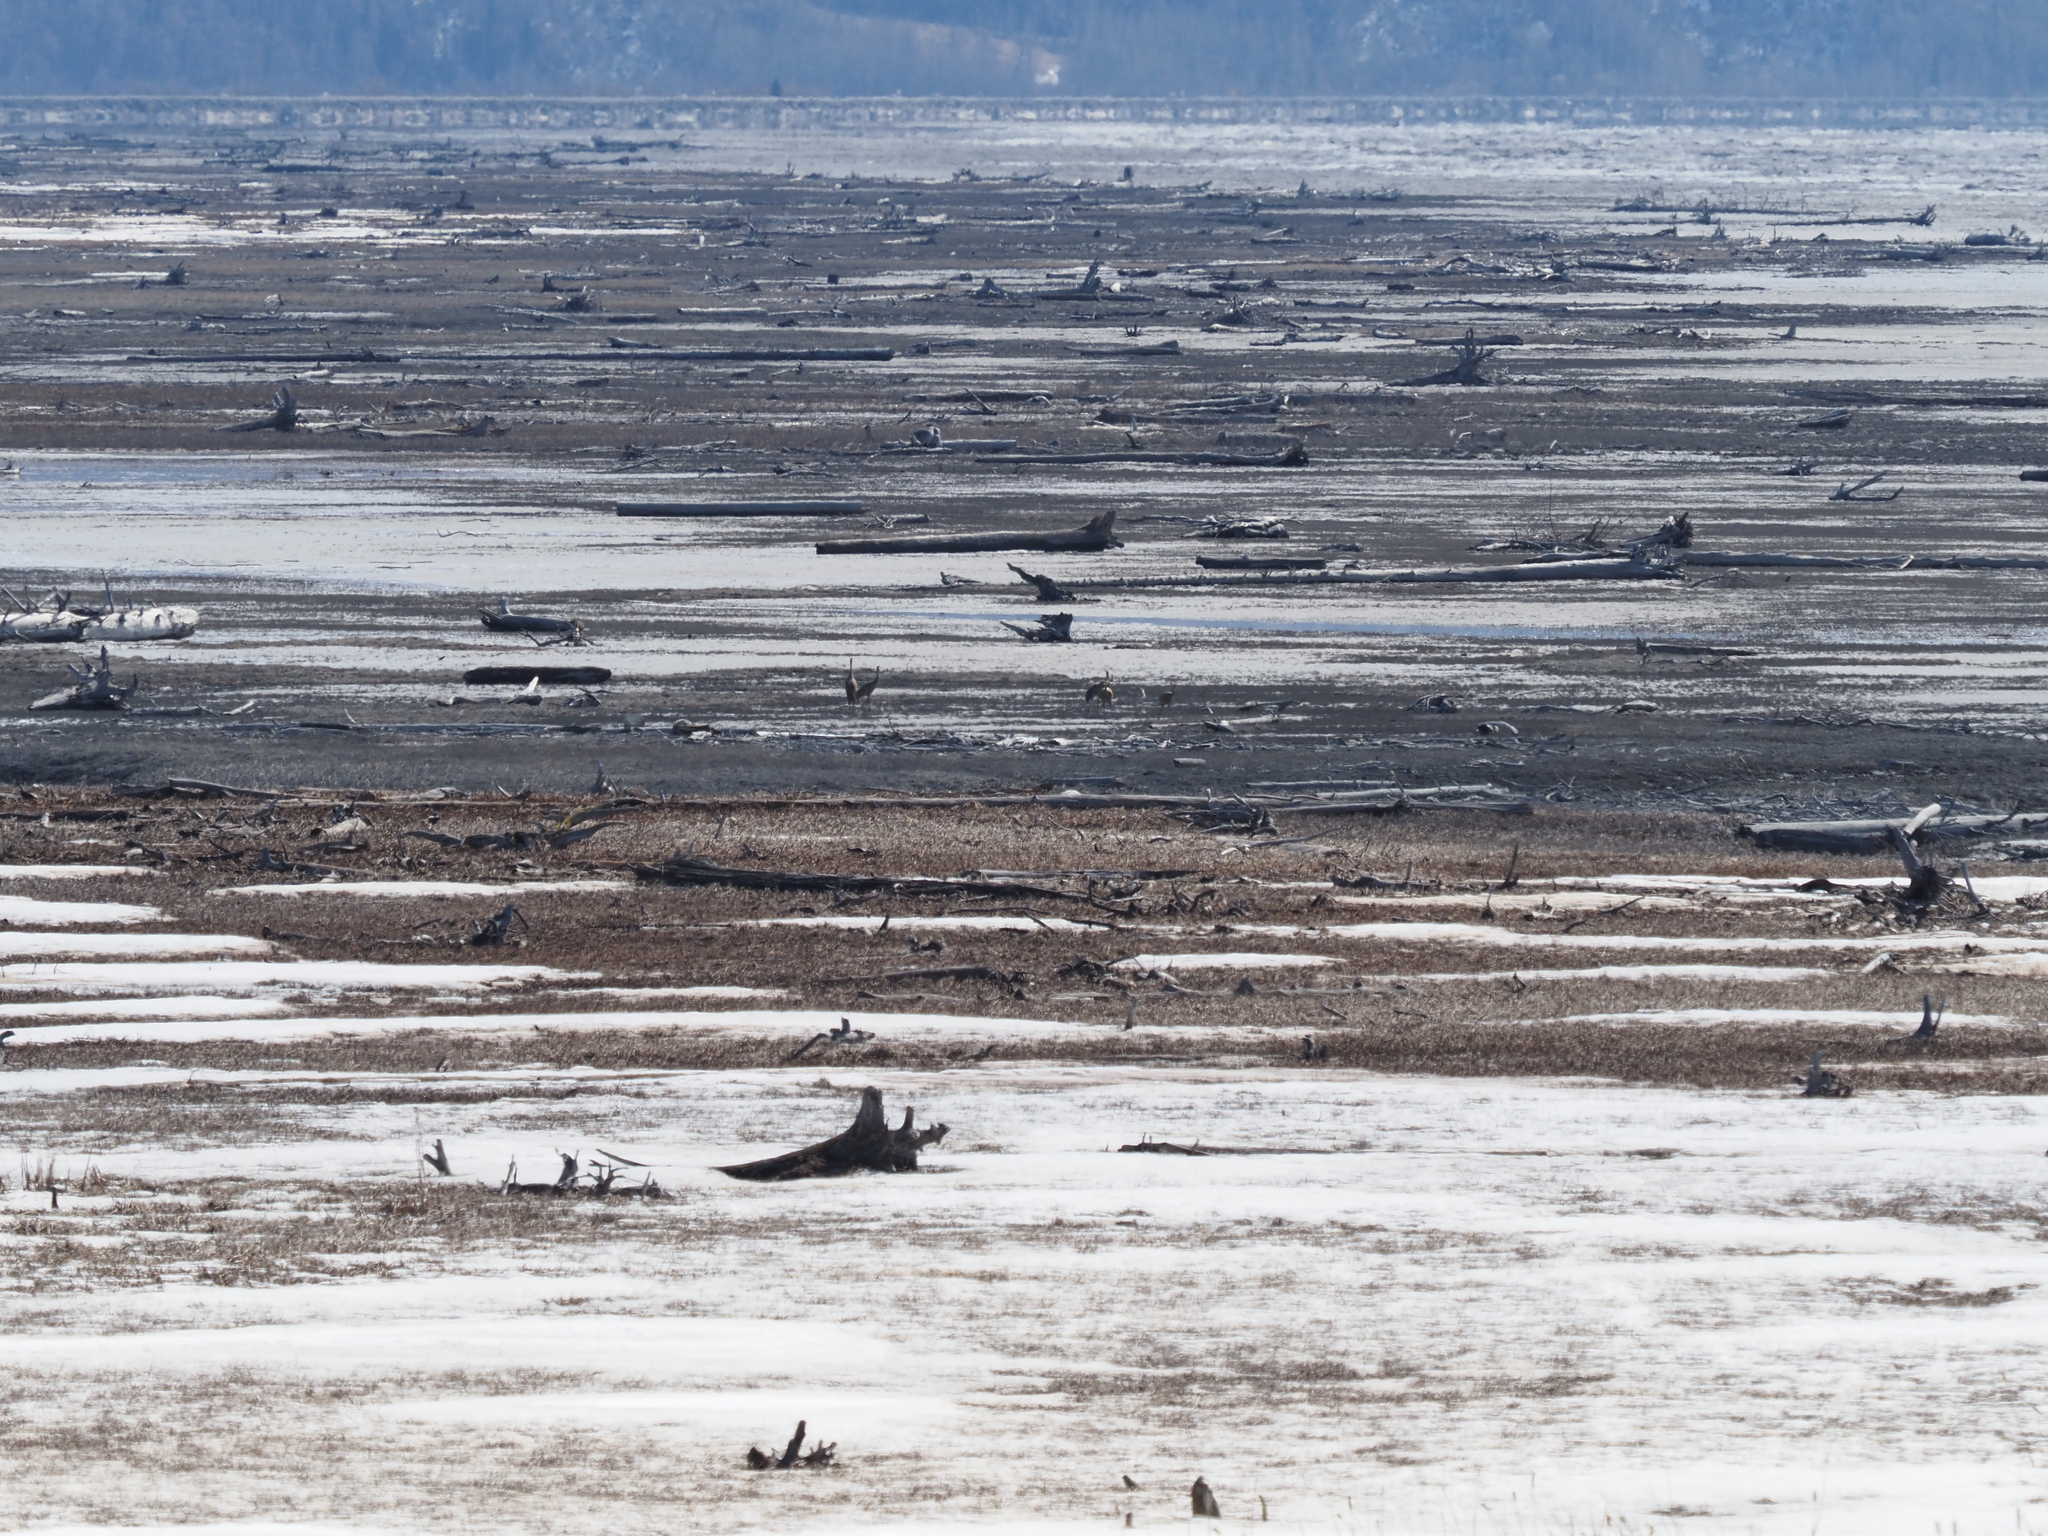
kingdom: Animalia
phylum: Chordata
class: Aves
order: Gruiformes
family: Gruidae
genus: Grus
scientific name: Grus canadensis
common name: Sandhill crane
